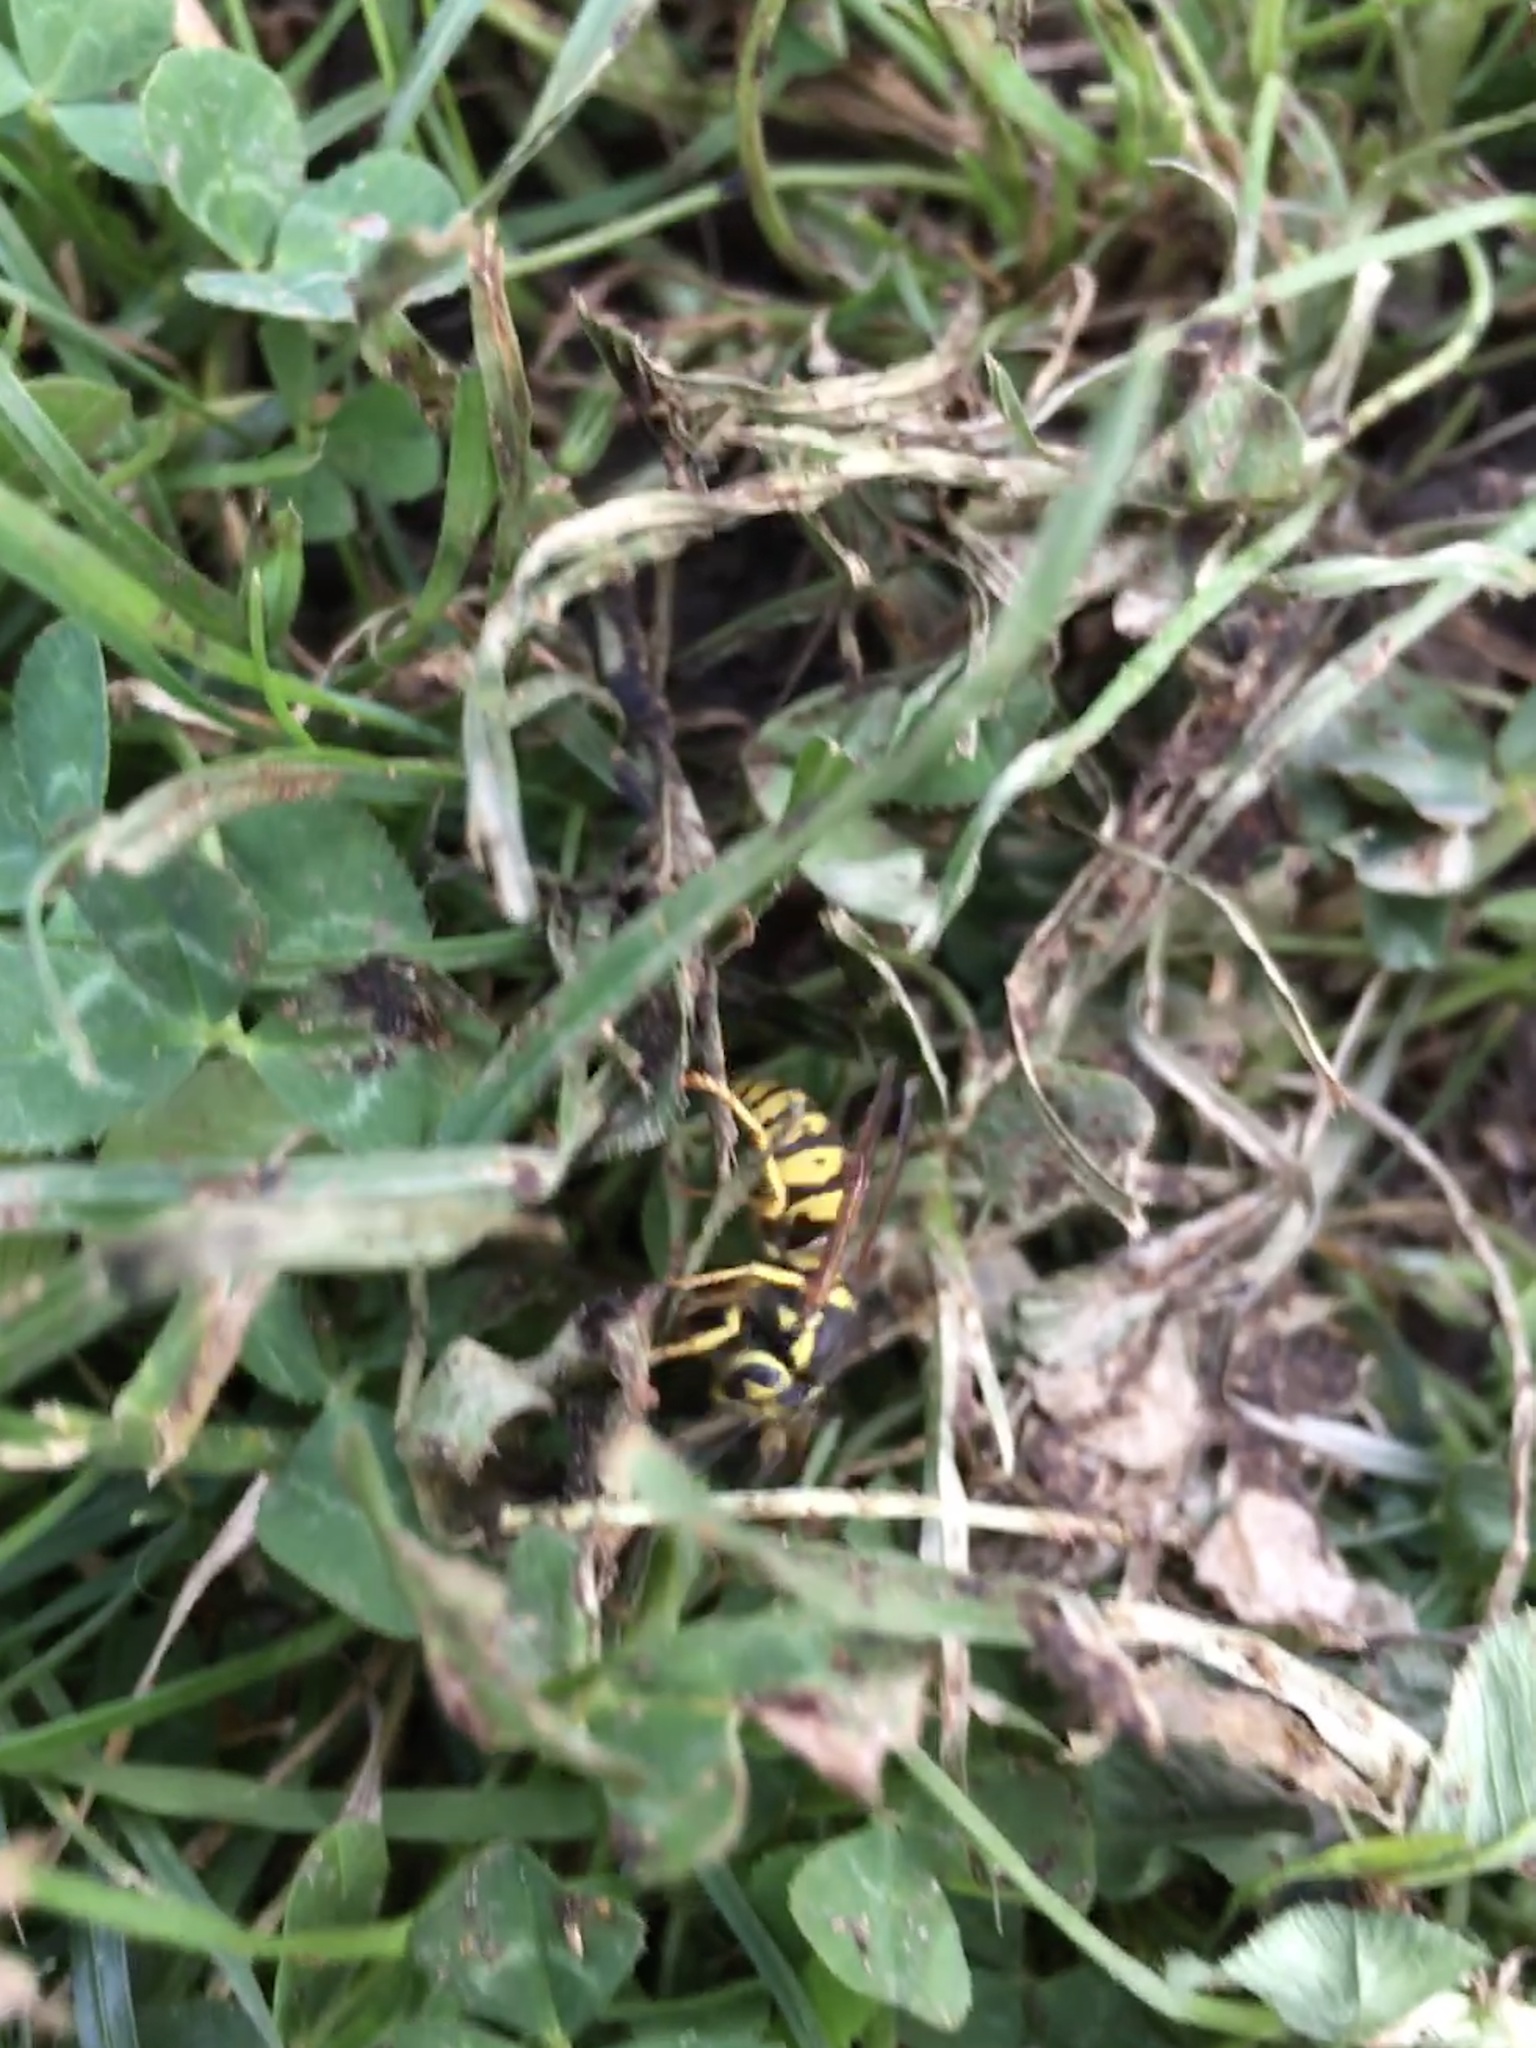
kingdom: Animalia
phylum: Arthropoda
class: Insecta
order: Hymenoptera
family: Vespidae
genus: Vespula
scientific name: Vespula pensylvanica
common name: Western yellowjacket
